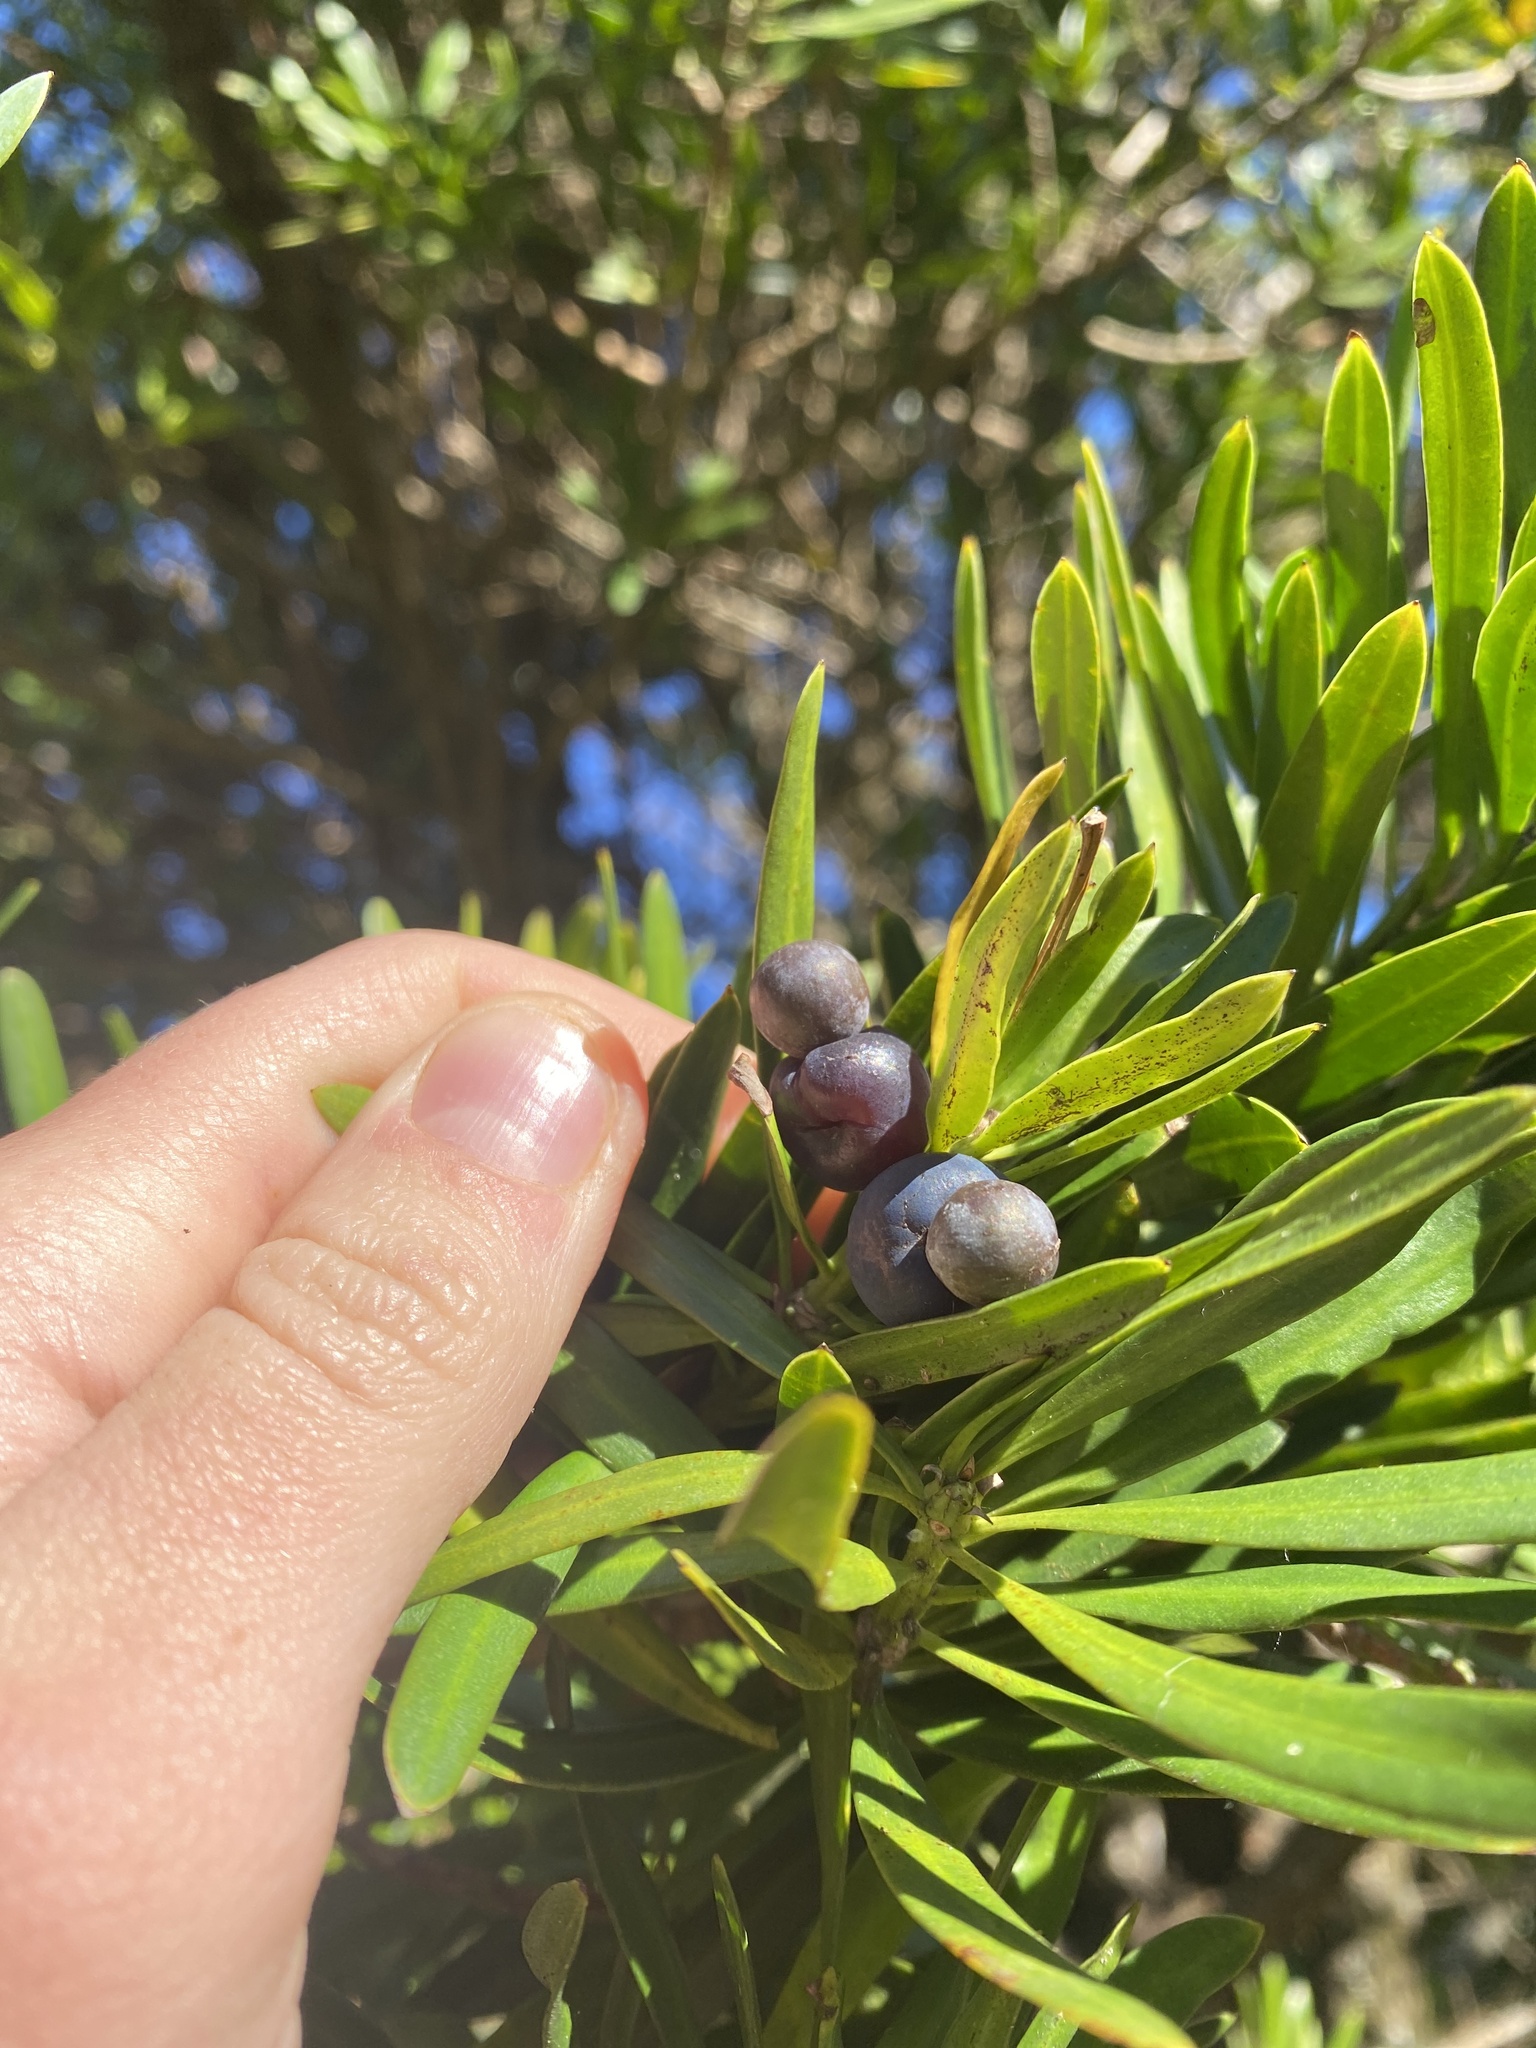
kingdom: Plantae
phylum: Tracheophyta
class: Pinopsida
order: Pinales
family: Podocarpaceae
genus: Podocarpus
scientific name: Podocarpus latifolius
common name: True yellowwood
